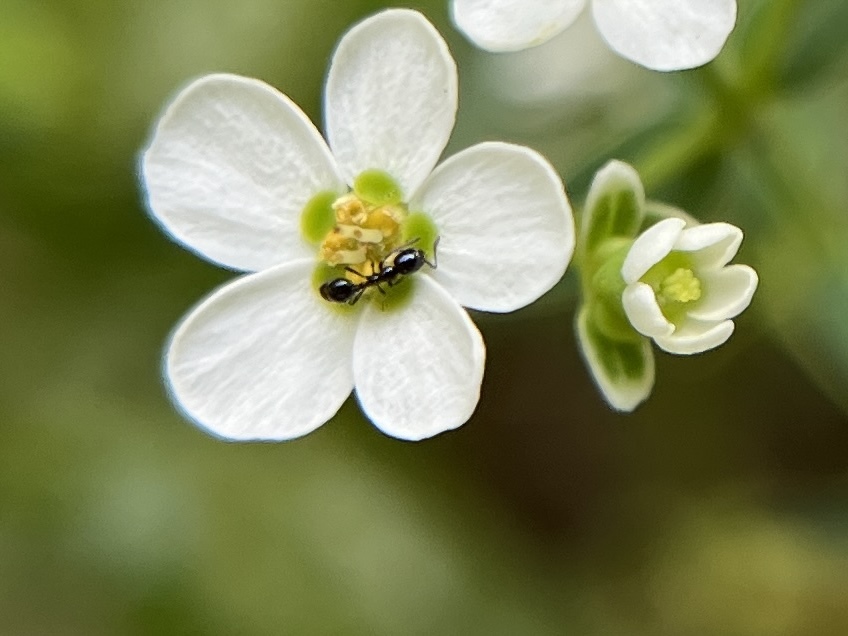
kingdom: Animalia
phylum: Arthropoda
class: Insecta
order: Hymenoptera
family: Formicidae
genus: Monomorium
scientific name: Monomorium minimum
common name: Little black ant
